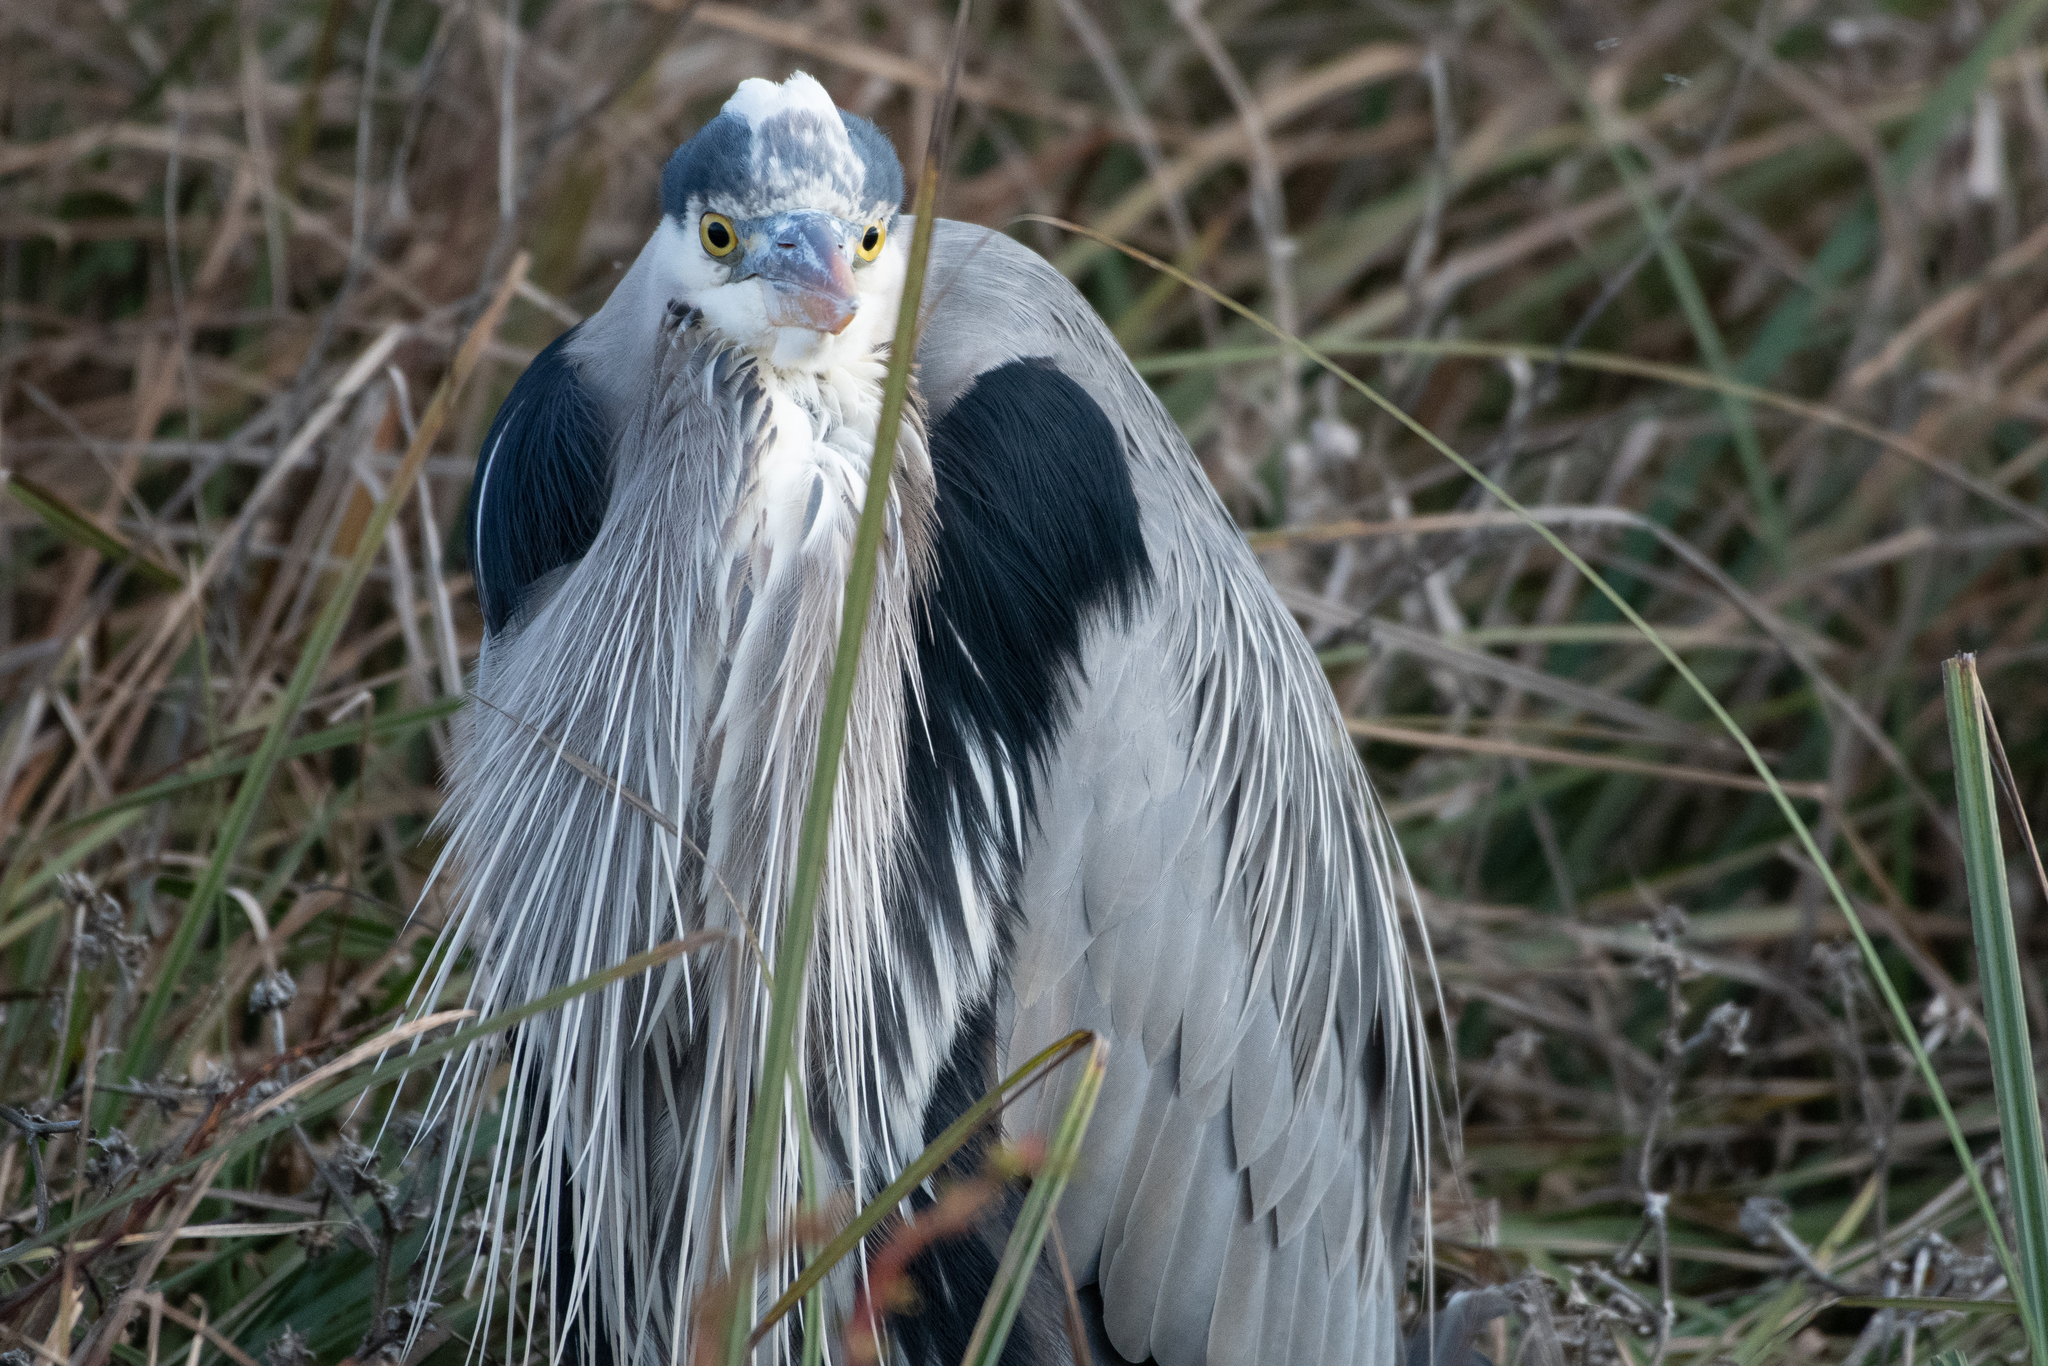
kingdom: Animalia
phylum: Chordata
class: Aves
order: Pelecaniformes
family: Ardeidae
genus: Ardea
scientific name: Ardea herodias
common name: Great blue heron
